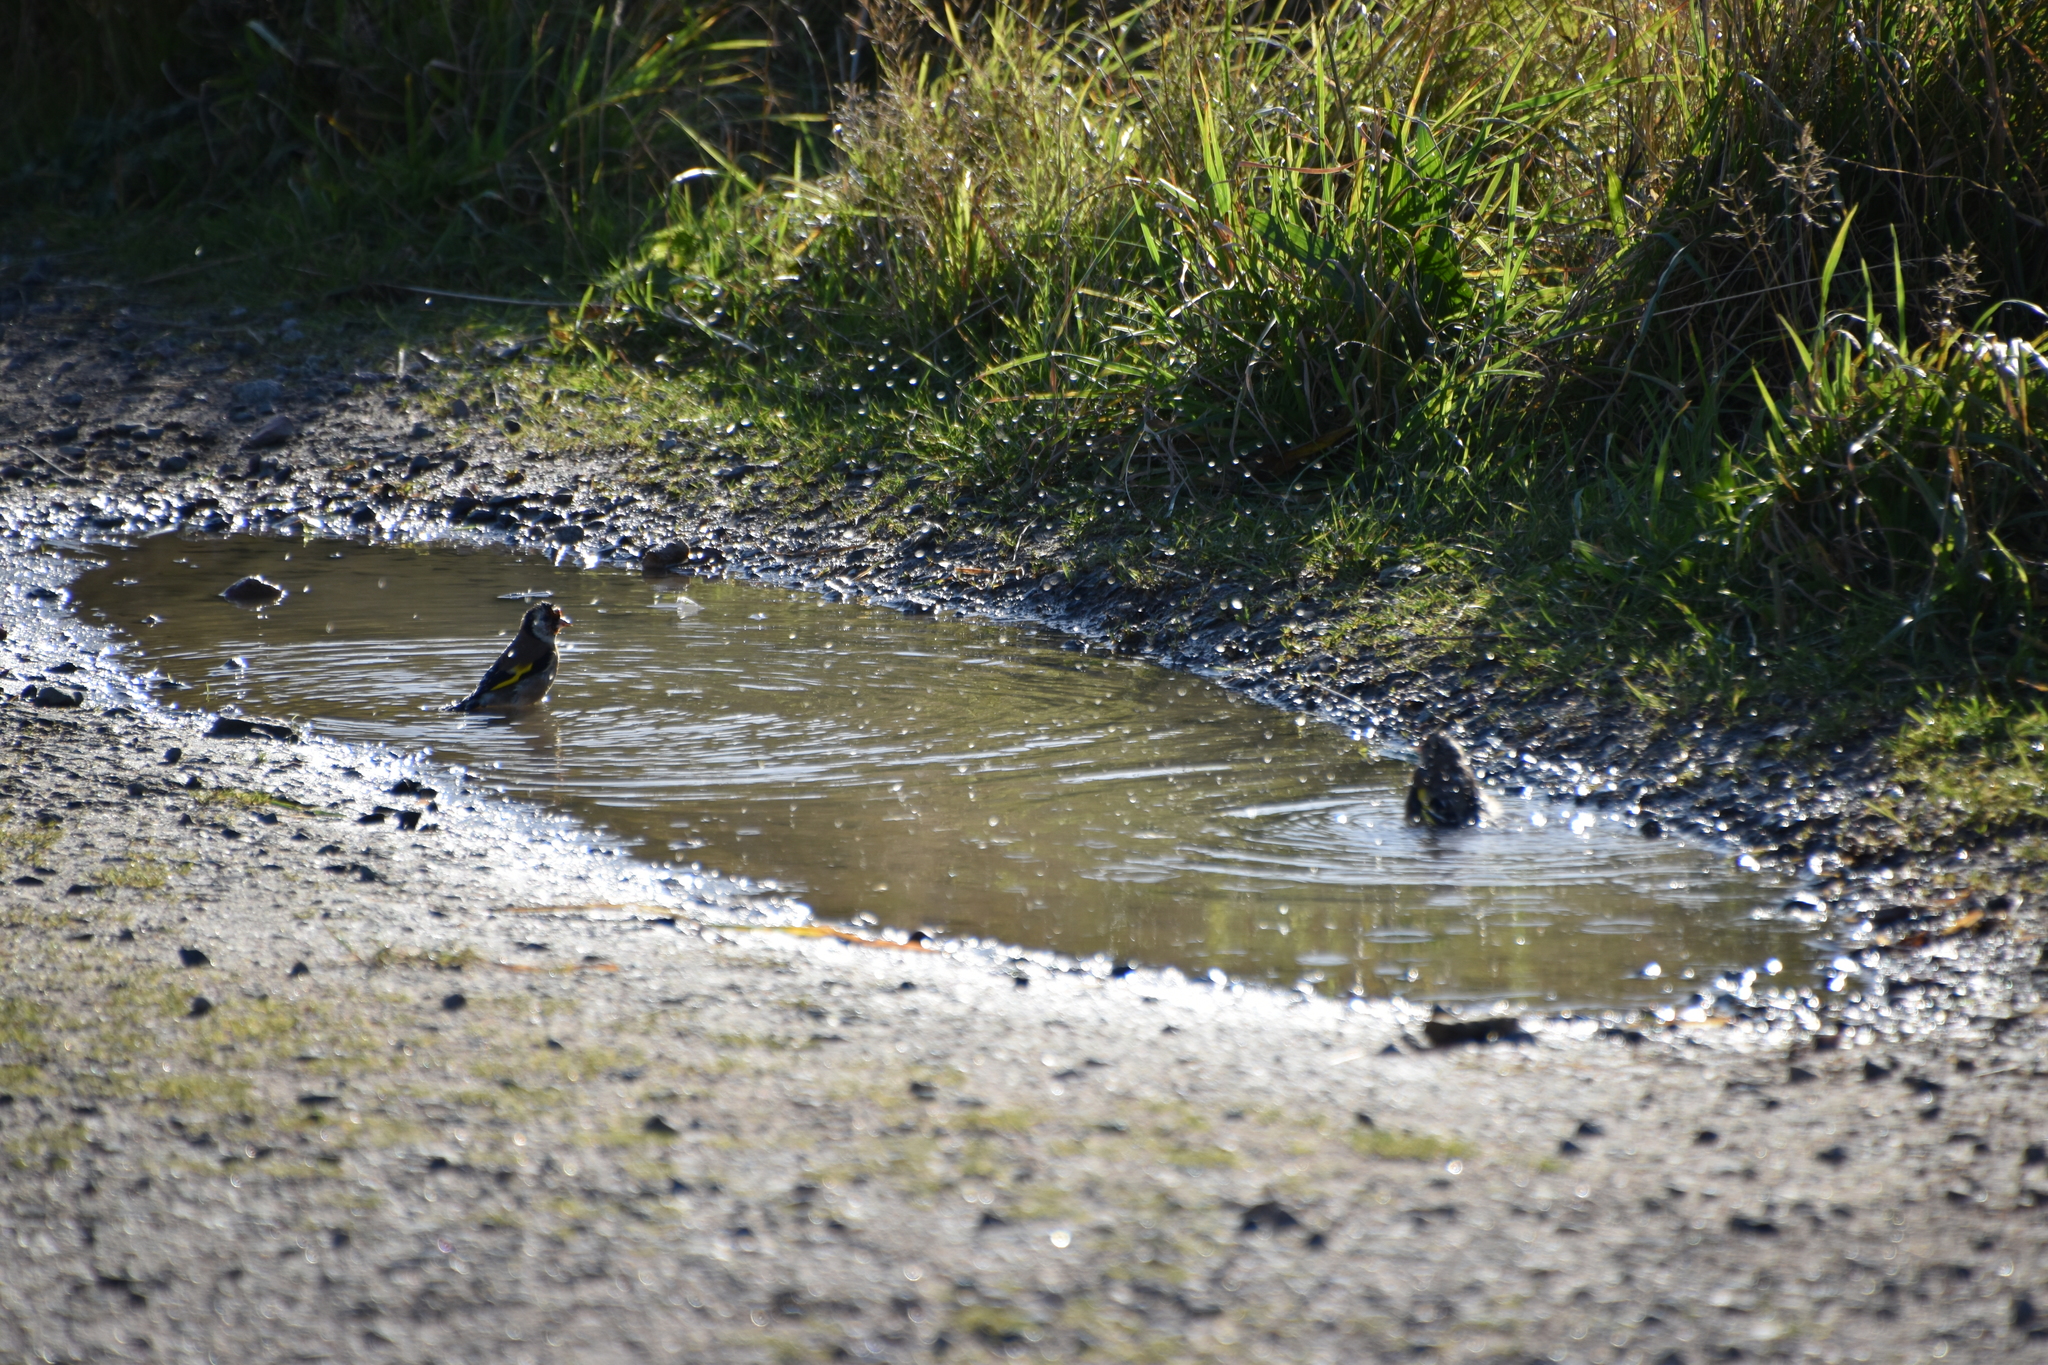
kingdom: Animalia
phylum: Chordata
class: Aves
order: Passeriformes
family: Fringillidae
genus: Carduelis
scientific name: Carduelis carduelis
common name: European goldfinch
